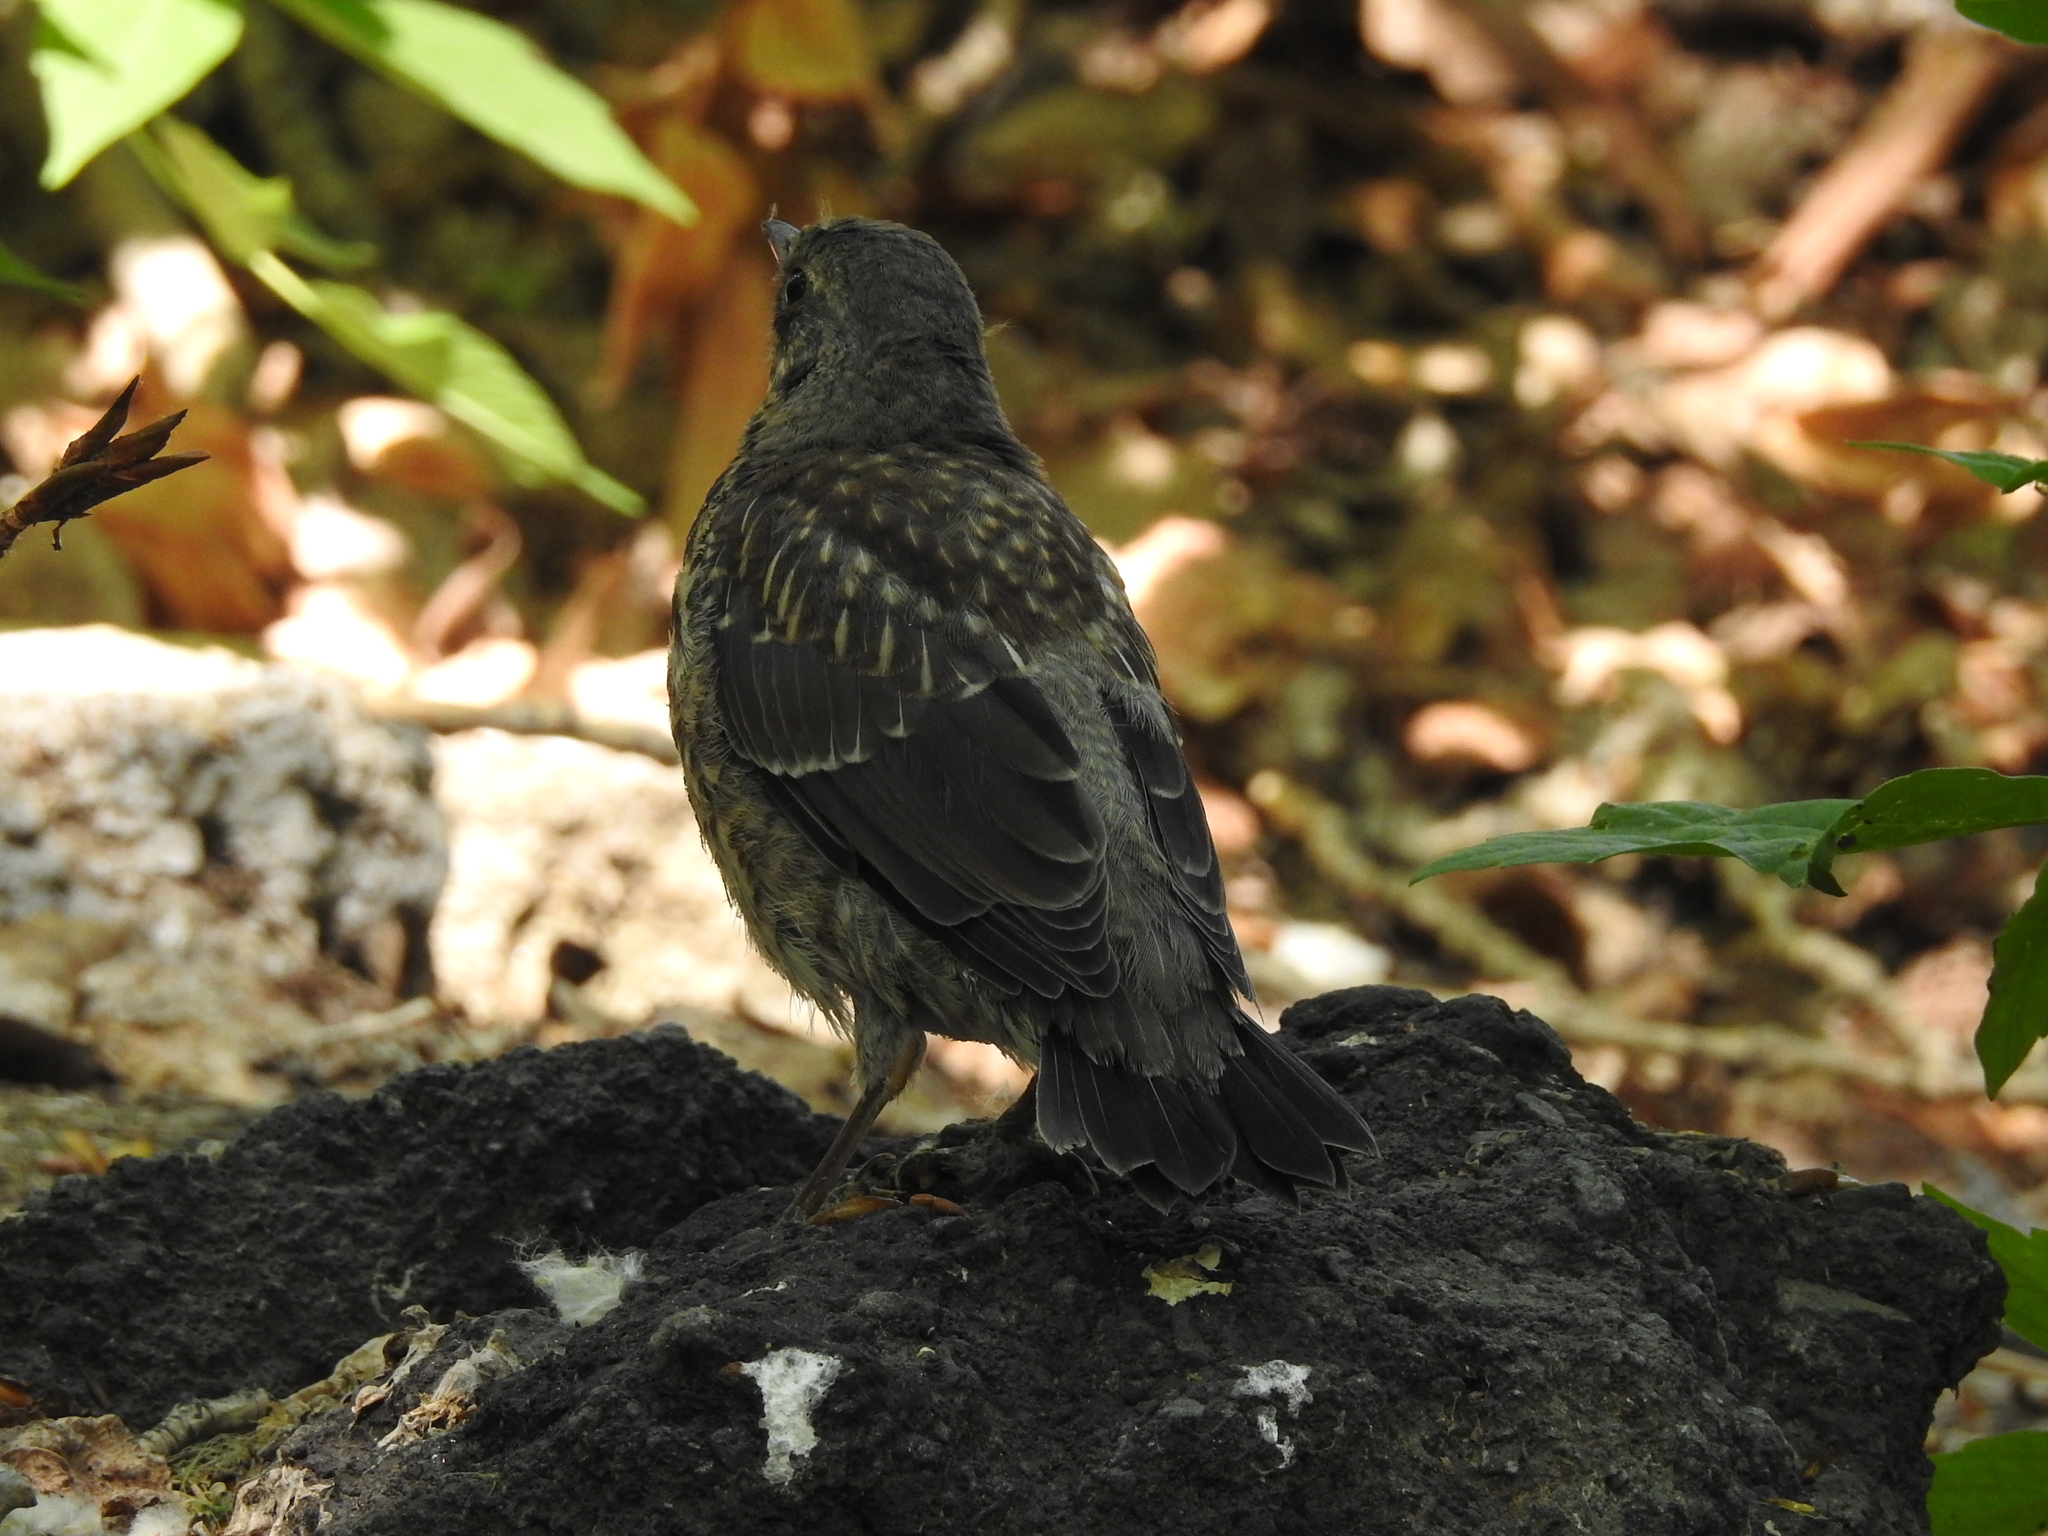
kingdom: Animalia
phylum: Chordata
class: Aves
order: Passeriformes
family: Turdidae
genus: Turdus
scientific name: Turdus pilaris
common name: Fieldfare
